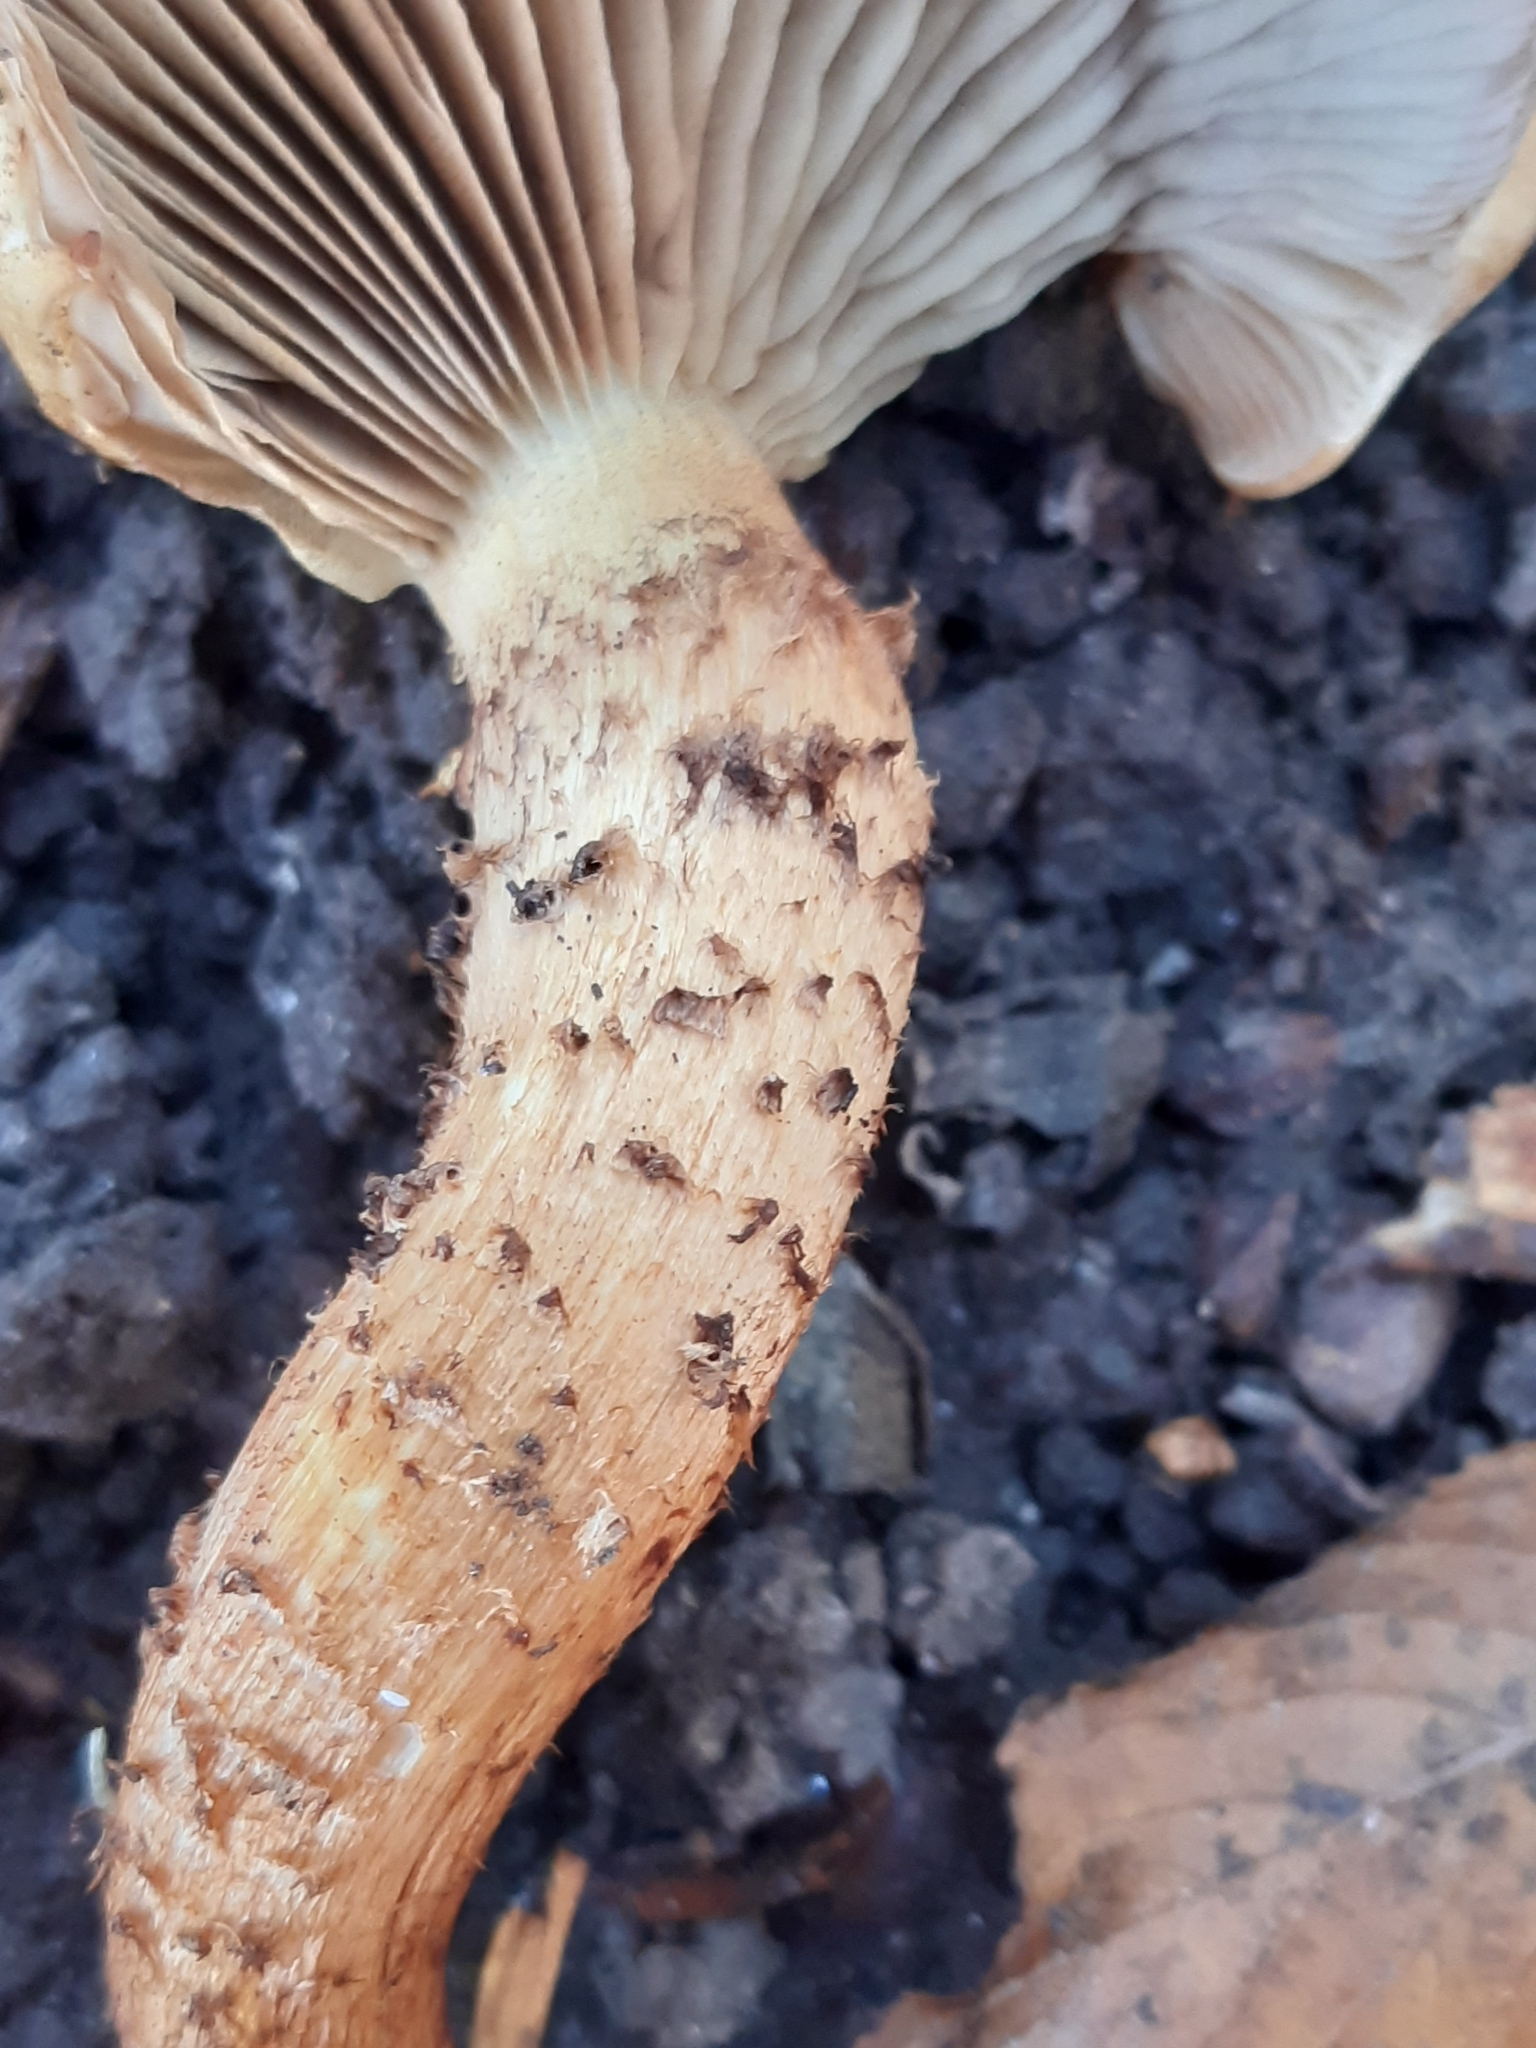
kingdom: Fungi
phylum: Basidiomycota
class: Agaricomycetes
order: Agaricales
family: Strophariaceae
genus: Pholiota
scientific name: Pholiota squarrosa
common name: Shaggy pholiota
